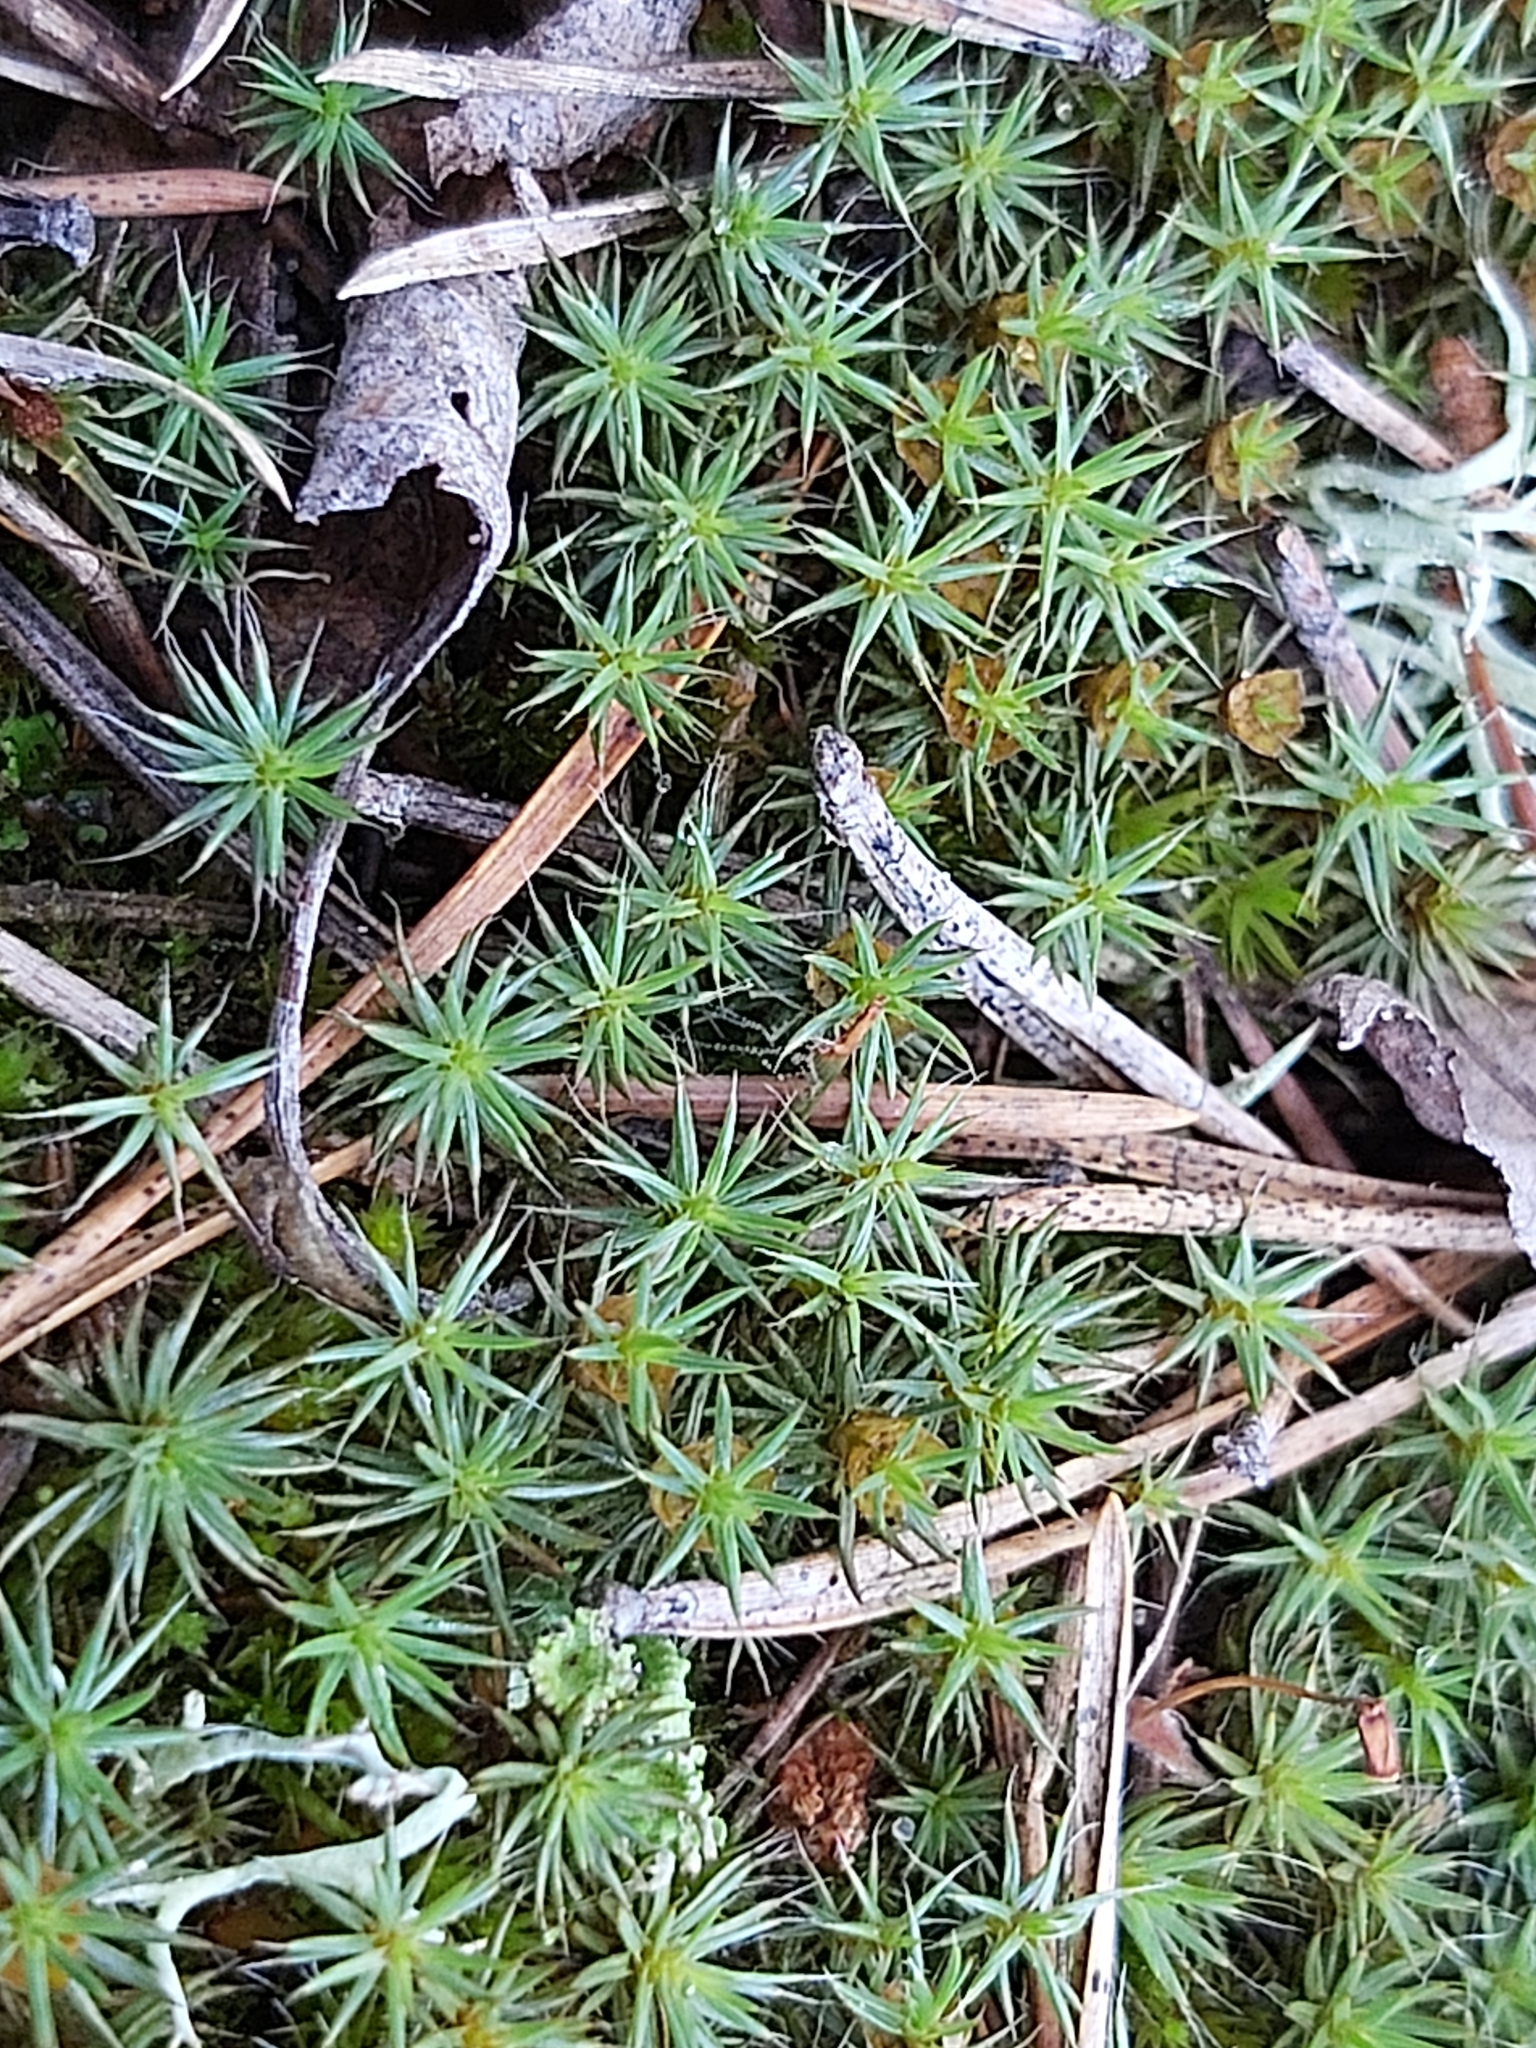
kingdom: Plantae
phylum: Bryophyta
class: Polytrichopsida
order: Polytrichales
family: Polytrichaceae
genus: Polytrichum
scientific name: Polytrichum juniperinum
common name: Juniper haircap moss
